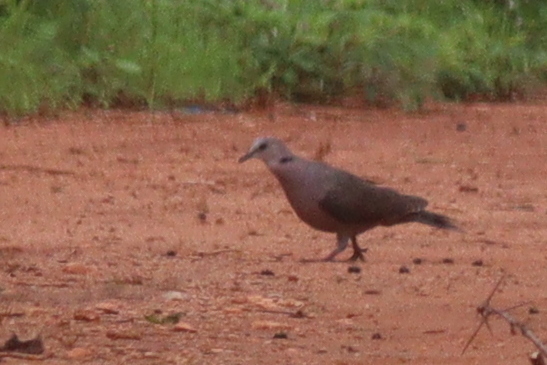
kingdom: Animalia
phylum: Chordata
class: Aves
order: Columbiformes
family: Columbidae
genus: Streptopelia
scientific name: Streptopelia semitorquata
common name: Red-eyed dove
